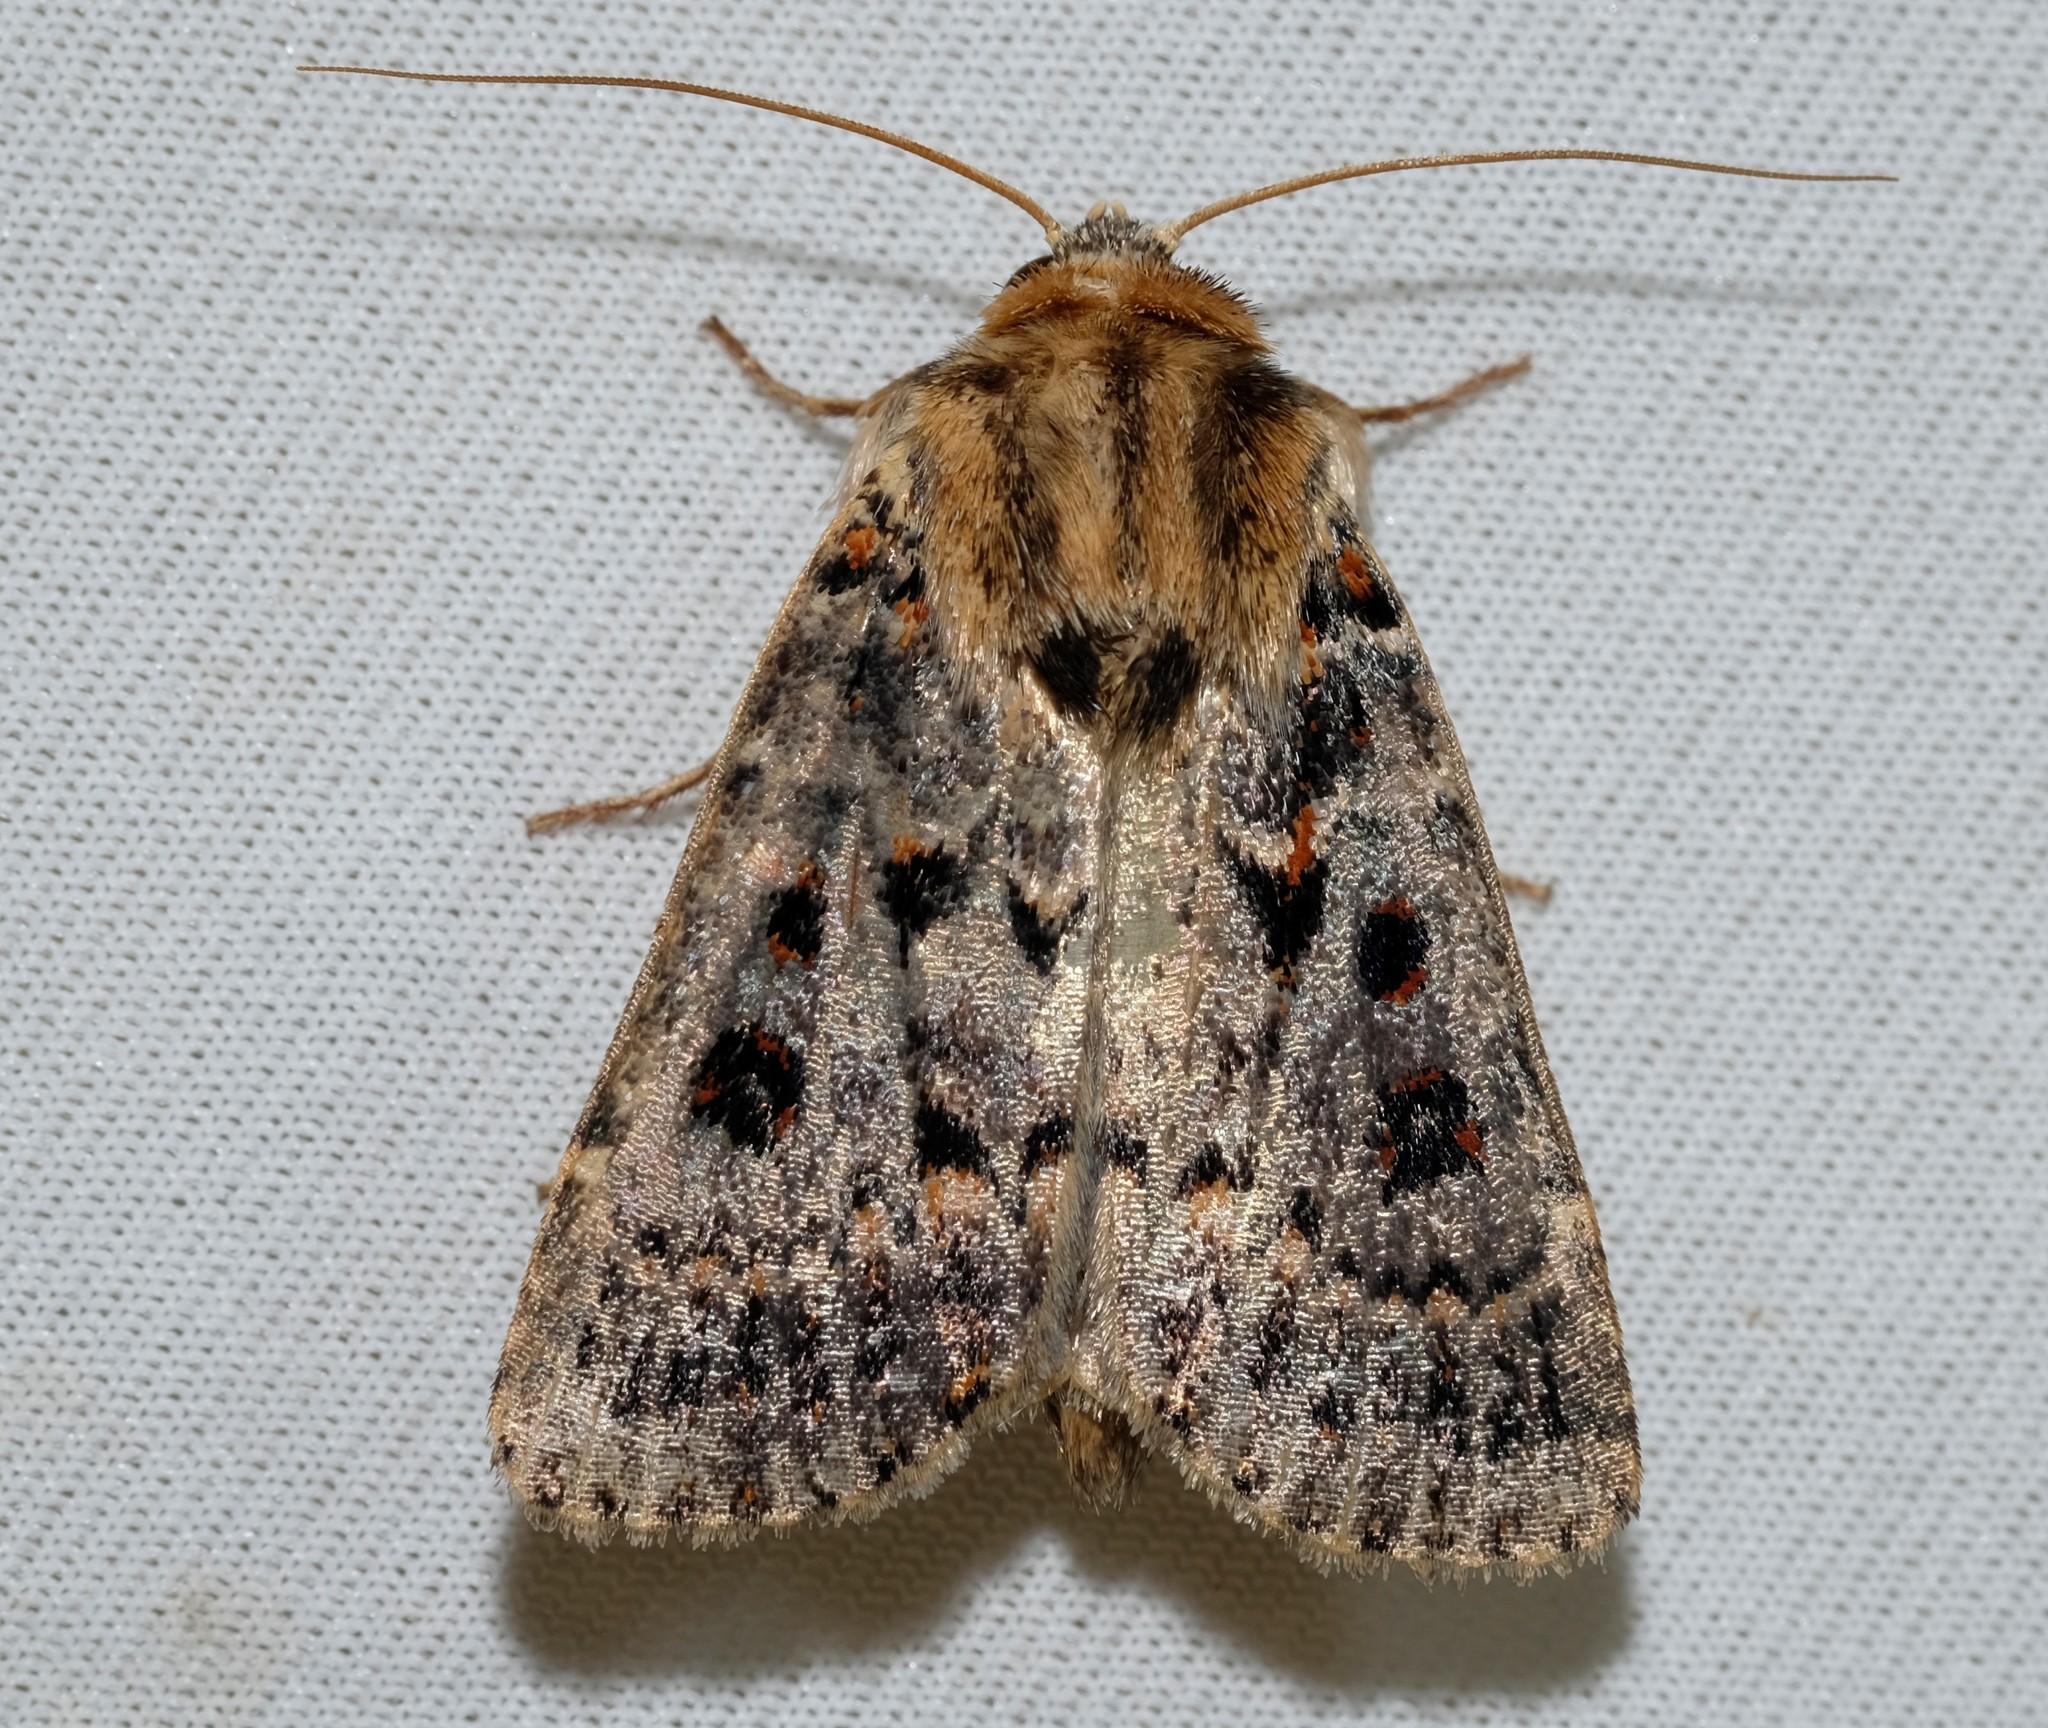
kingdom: Animalia
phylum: Arthropoda
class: Insecta
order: Lepidoptera
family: Noctuidae
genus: Proteuxoa
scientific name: Proteuxoa sanguinipuncta
